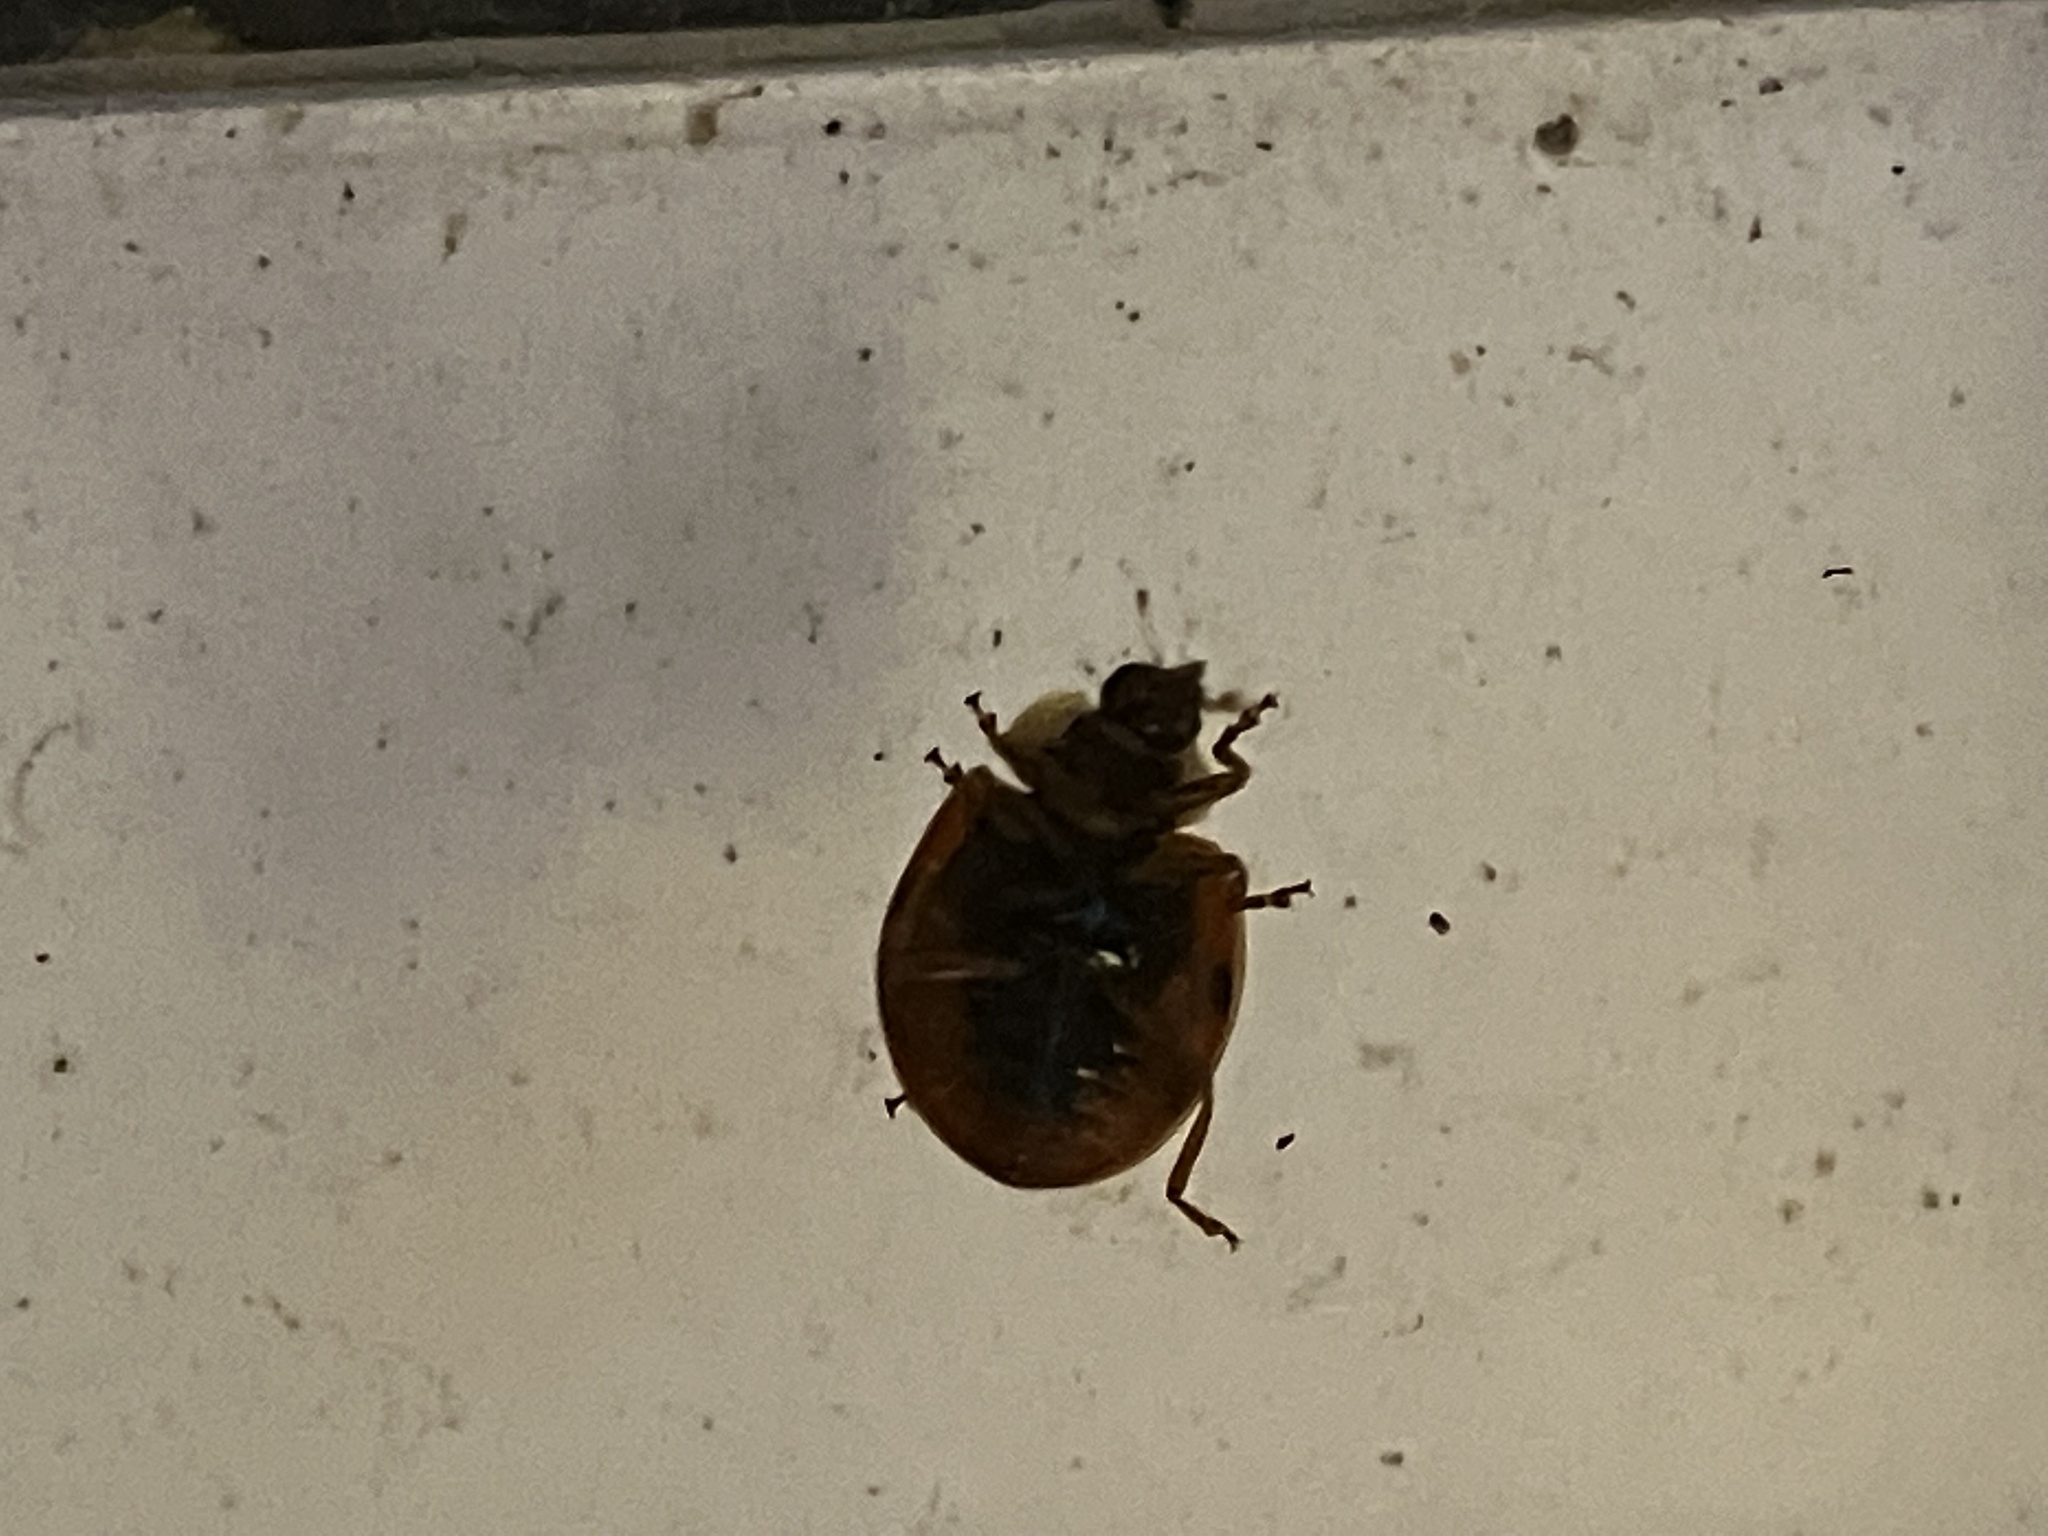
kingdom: Animalia
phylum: Arthropoda
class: Insecta
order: Coleoptera
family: Coccinellidae
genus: Harmonia
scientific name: Harmonia axyridis
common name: Harlequin ladybird
